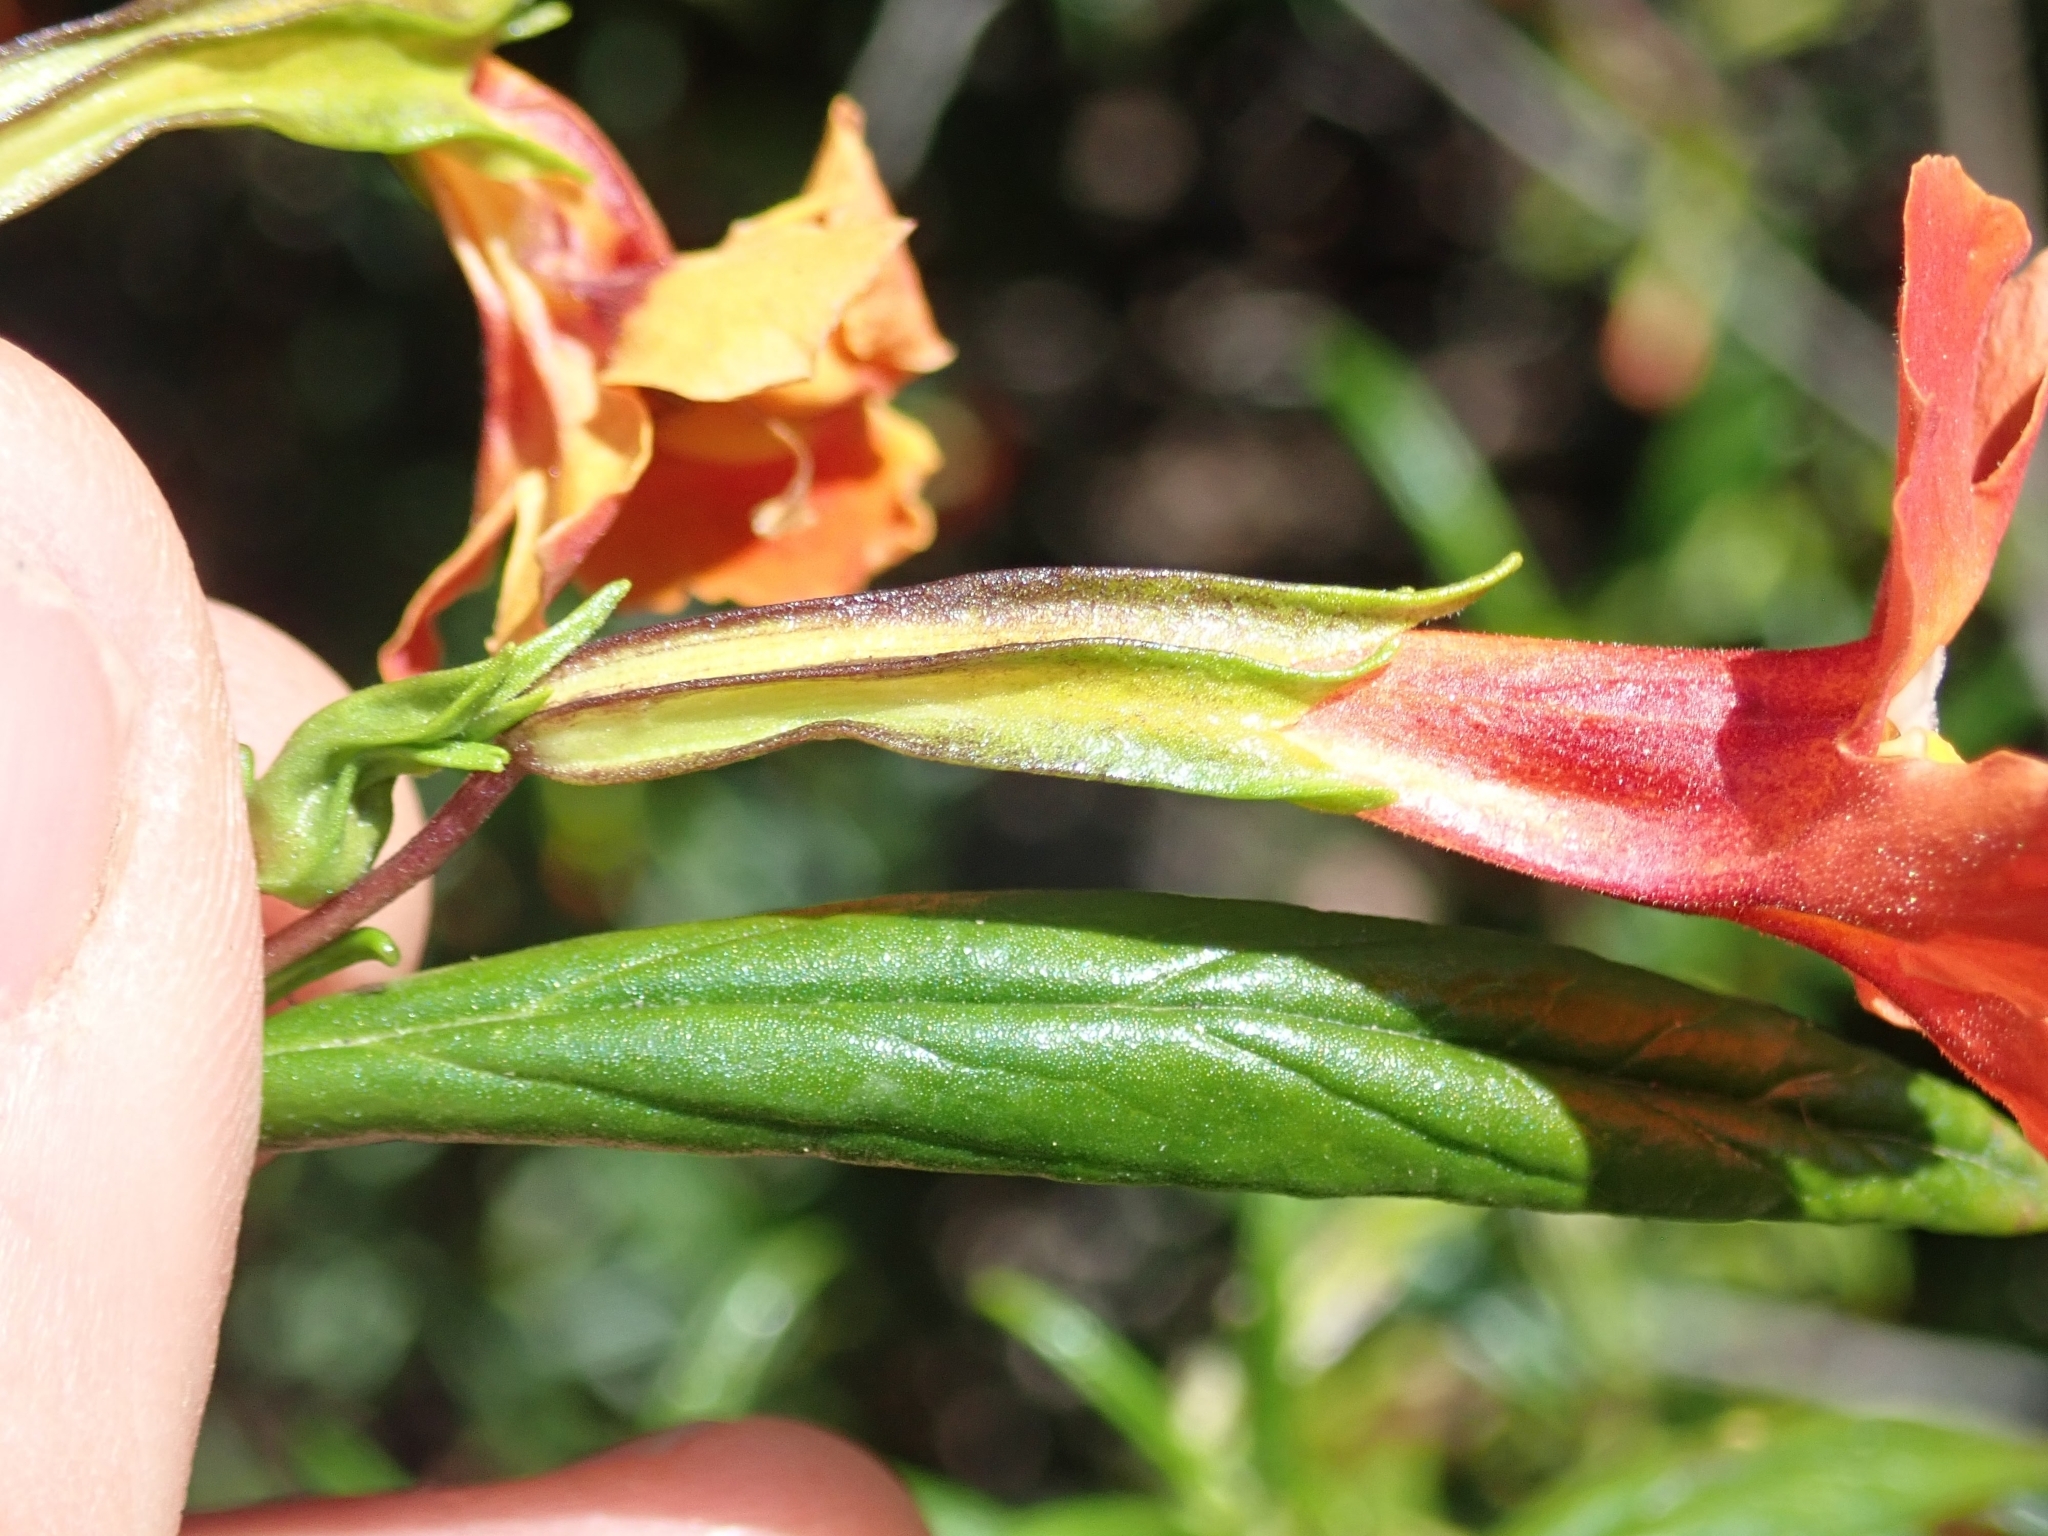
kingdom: Plantae
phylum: Tracheophyta
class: Magnoliopsida
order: Lamiales
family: Phrymaceae
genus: Diplacus
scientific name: Diplacus puniceus
